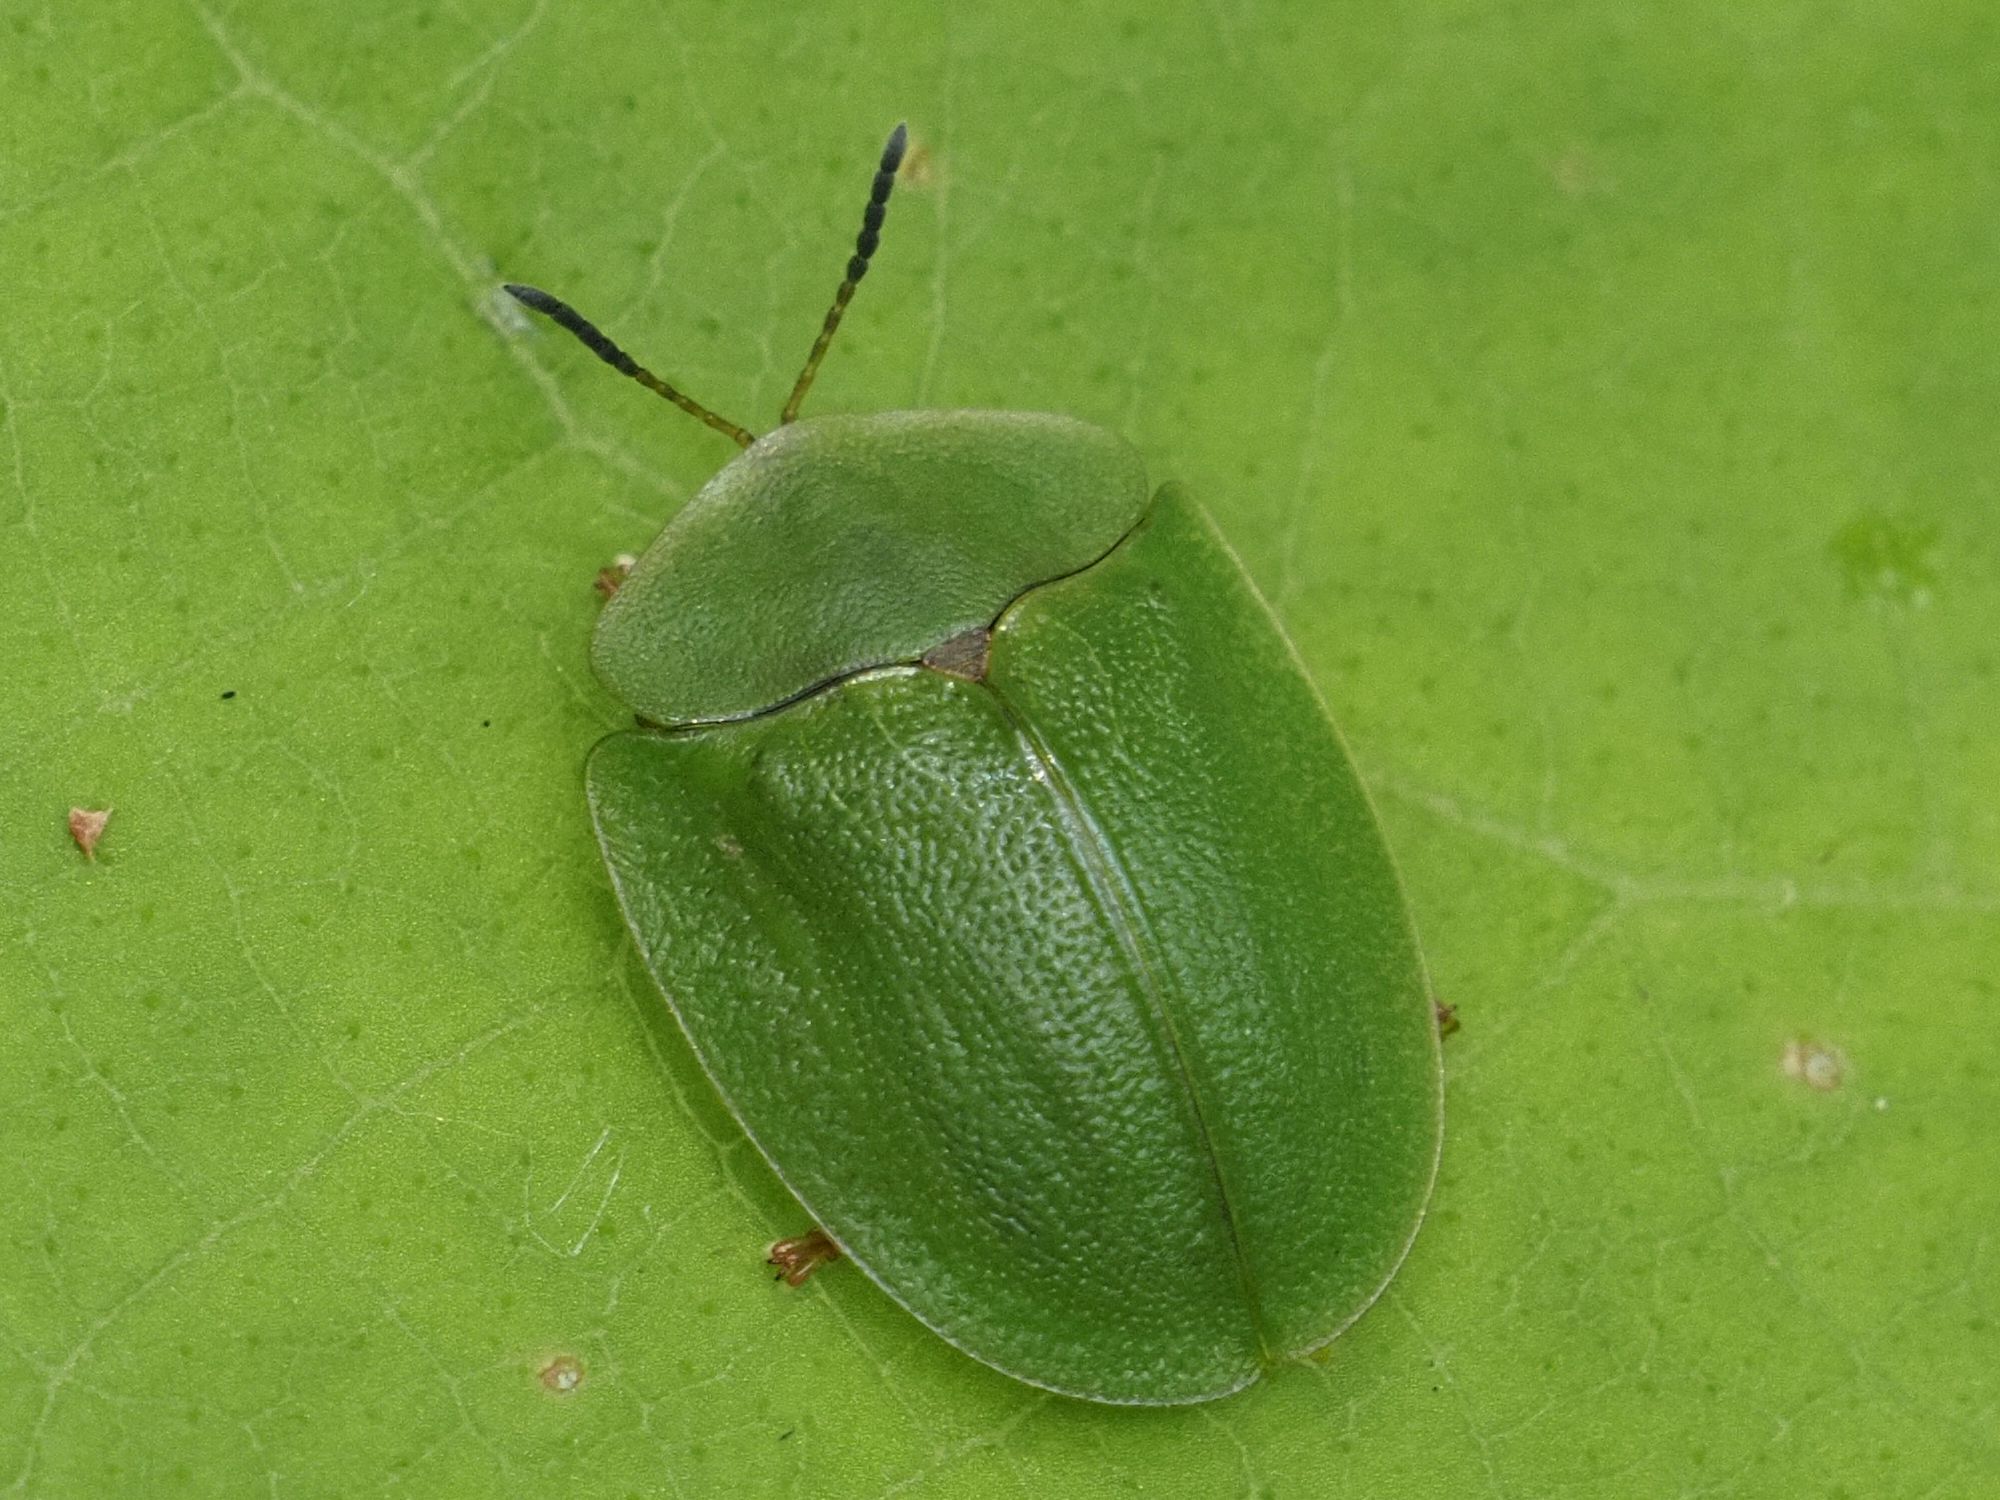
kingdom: Animalia
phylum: Arthropoda
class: Insecta
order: Coleoptera
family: Chrysomelidae
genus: Cassida
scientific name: Cassida viridis
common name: Green tortoise beetle
